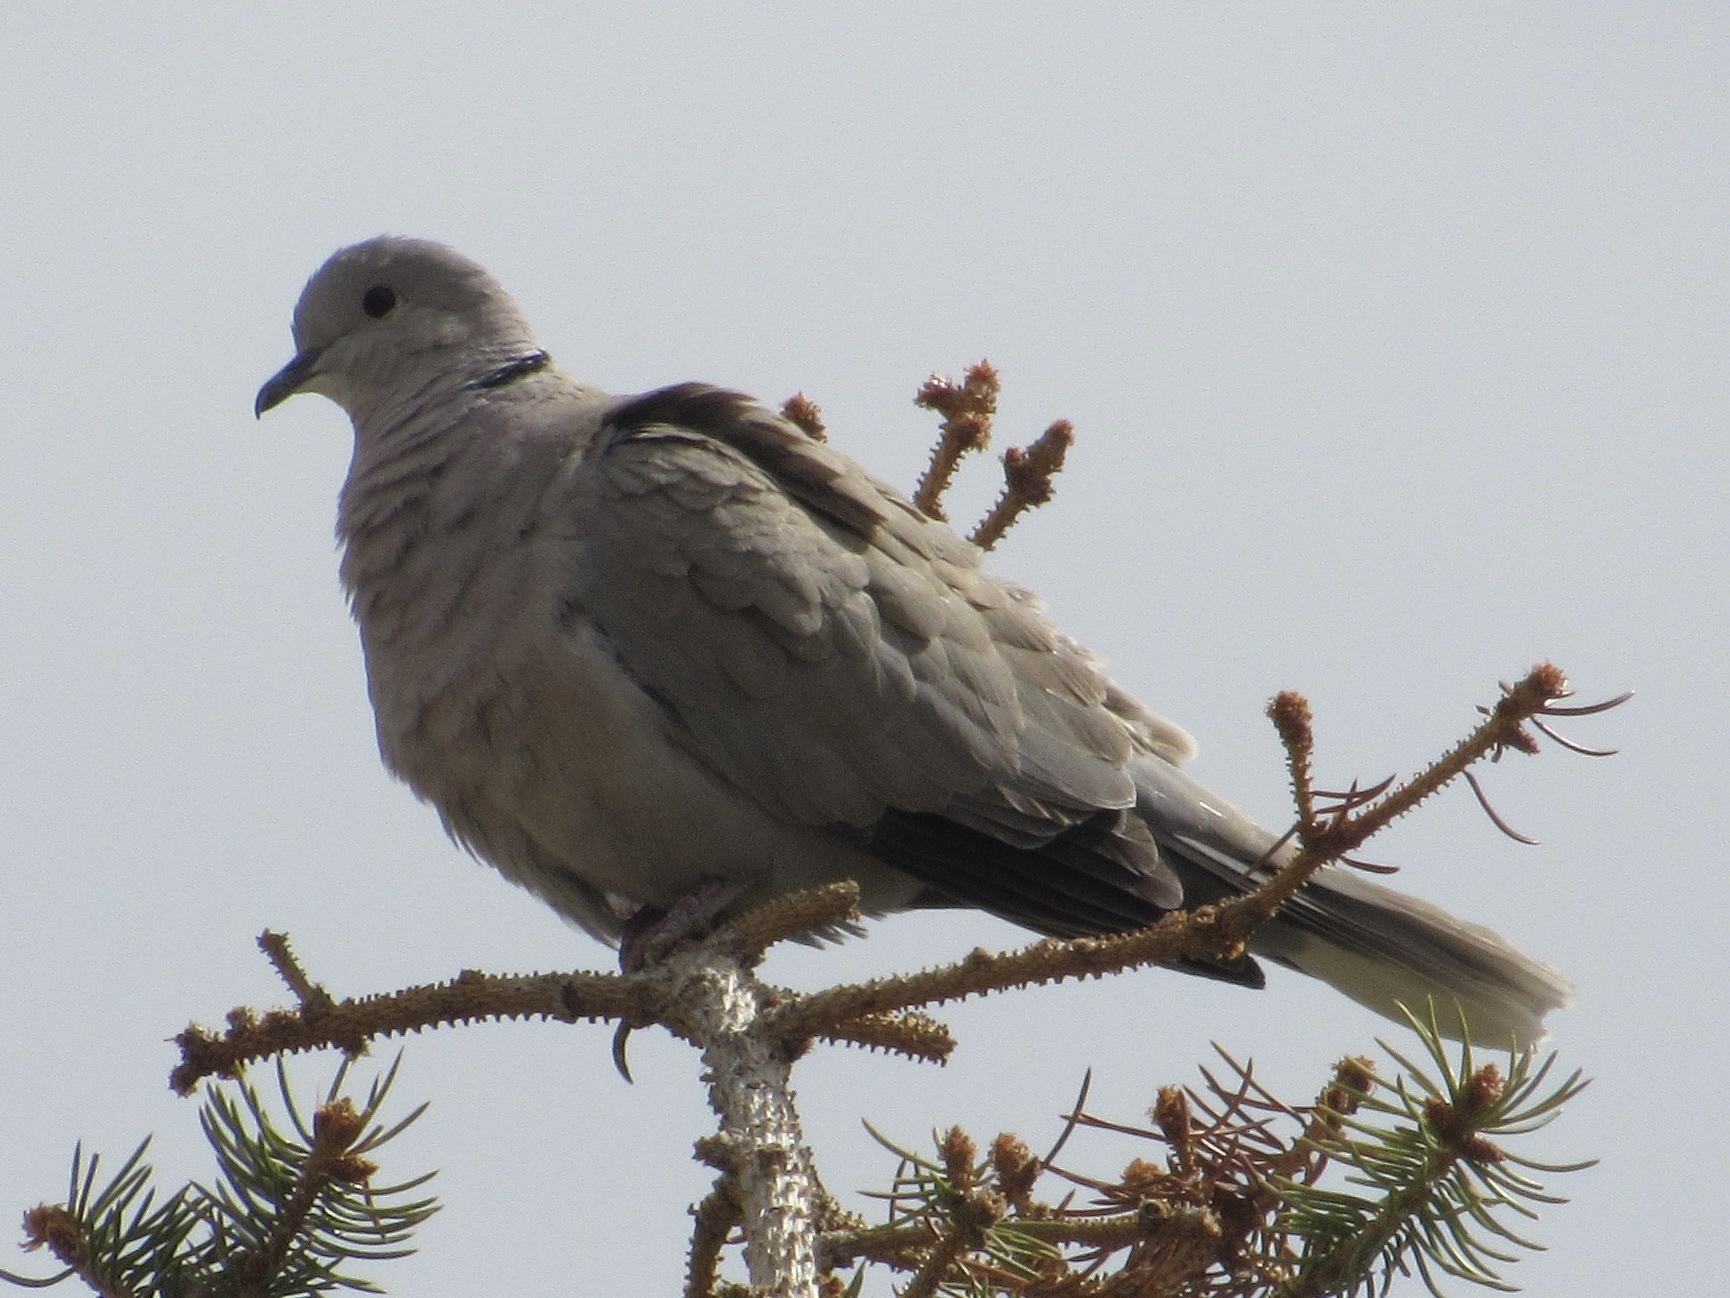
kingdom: Animalia
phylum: Chordata
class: Aves
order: Columbiformes
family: Columbidae
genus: Streptopelia
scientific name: Streptopelia decaocto
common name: Eurasian collared dove
